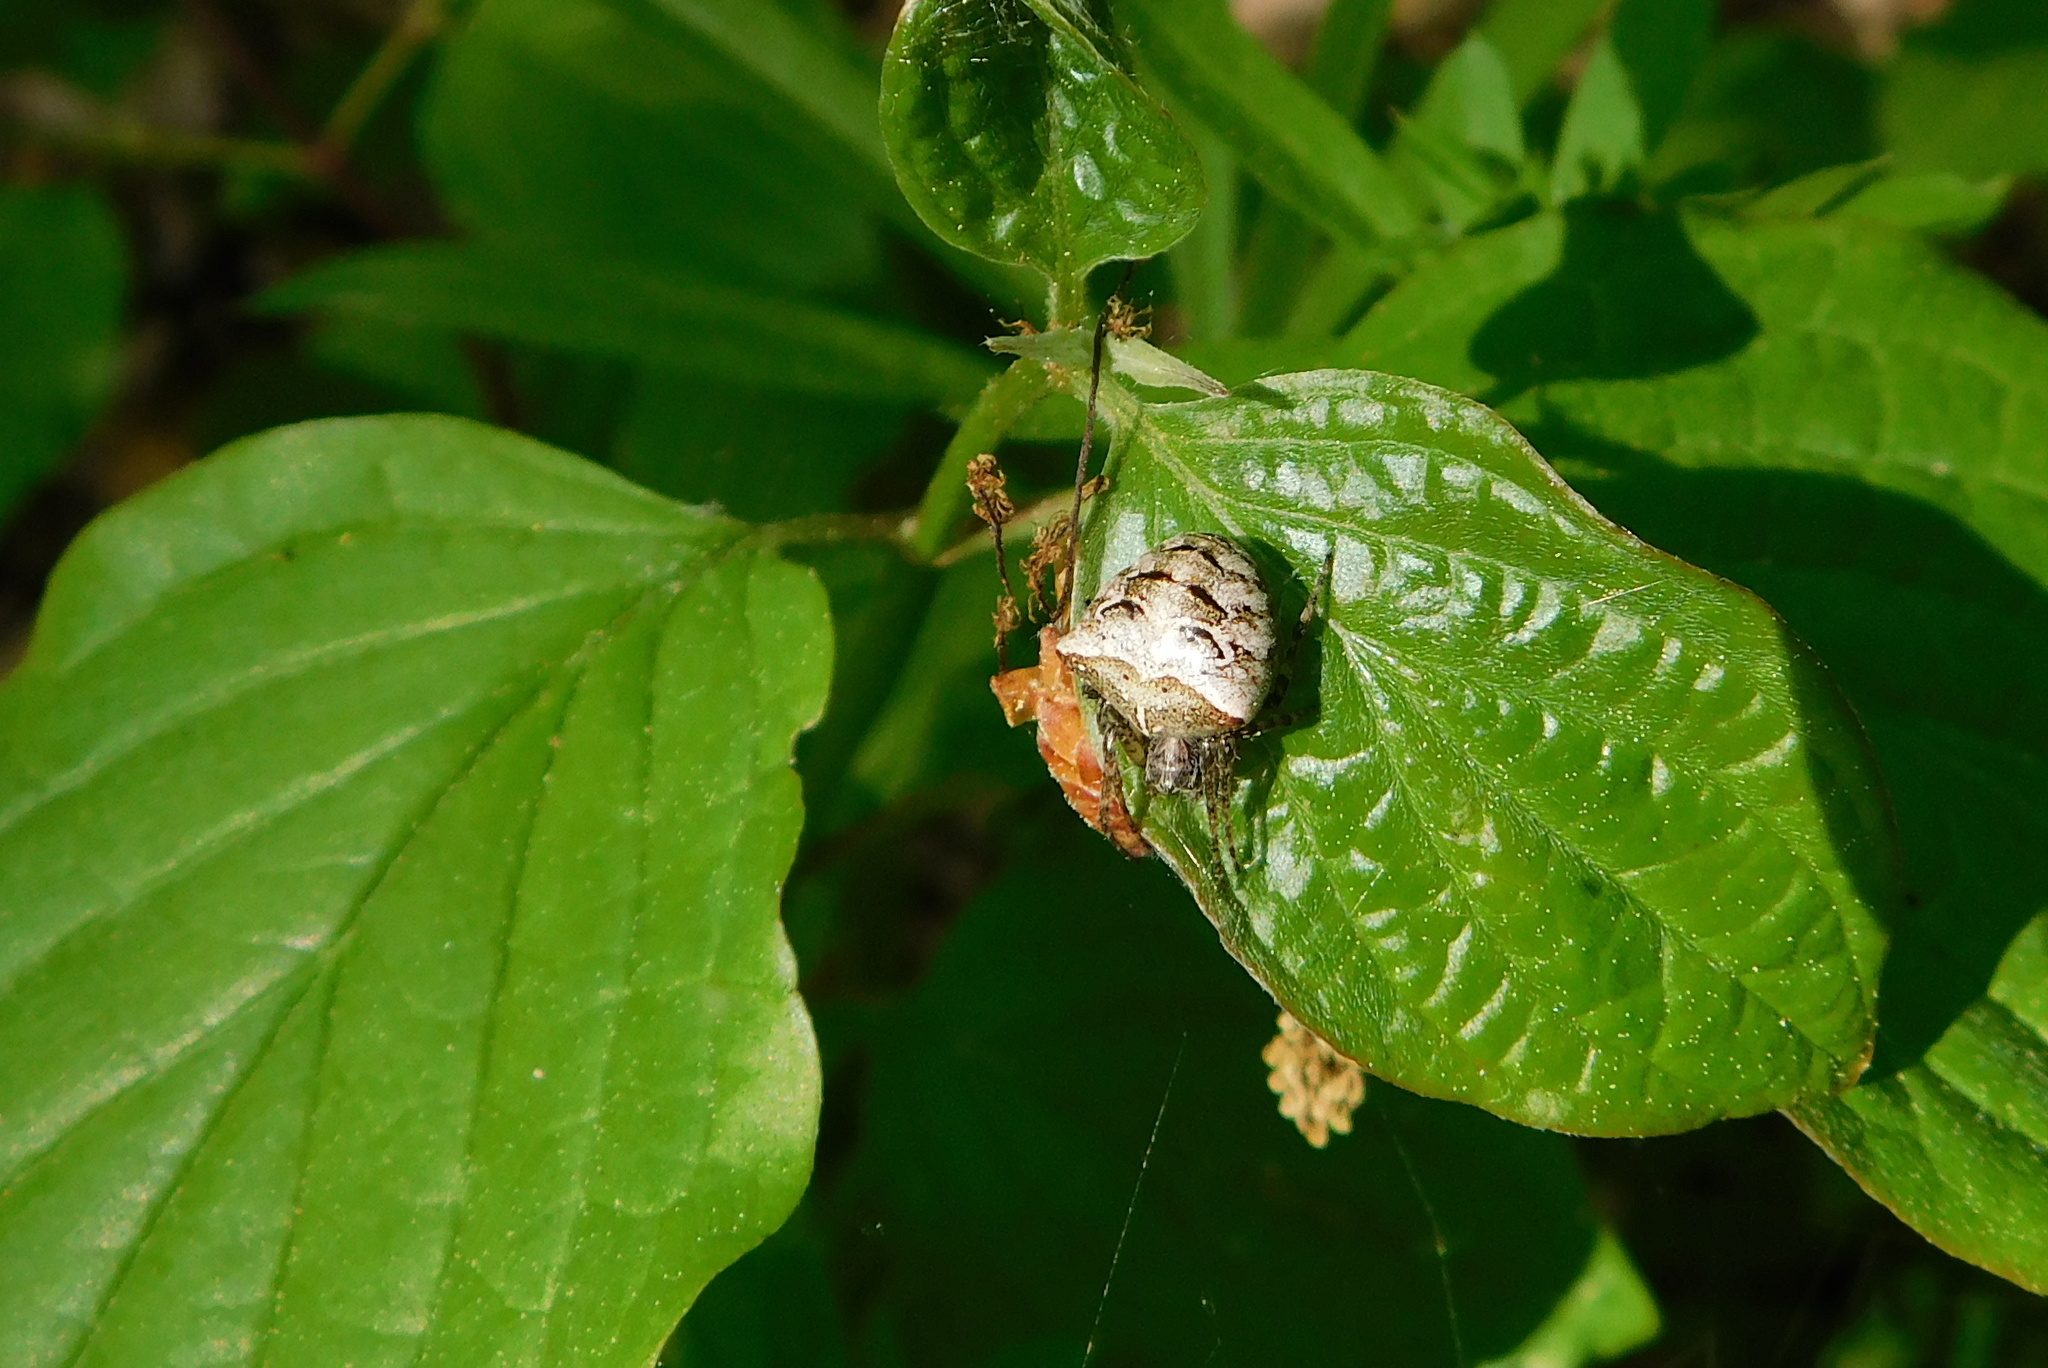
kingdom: Animalia
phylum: Arthropoda
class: Arachnida
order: Araneae
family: Araneidae
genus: Gibbaranea
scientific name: Gibbaranea bituberculata
